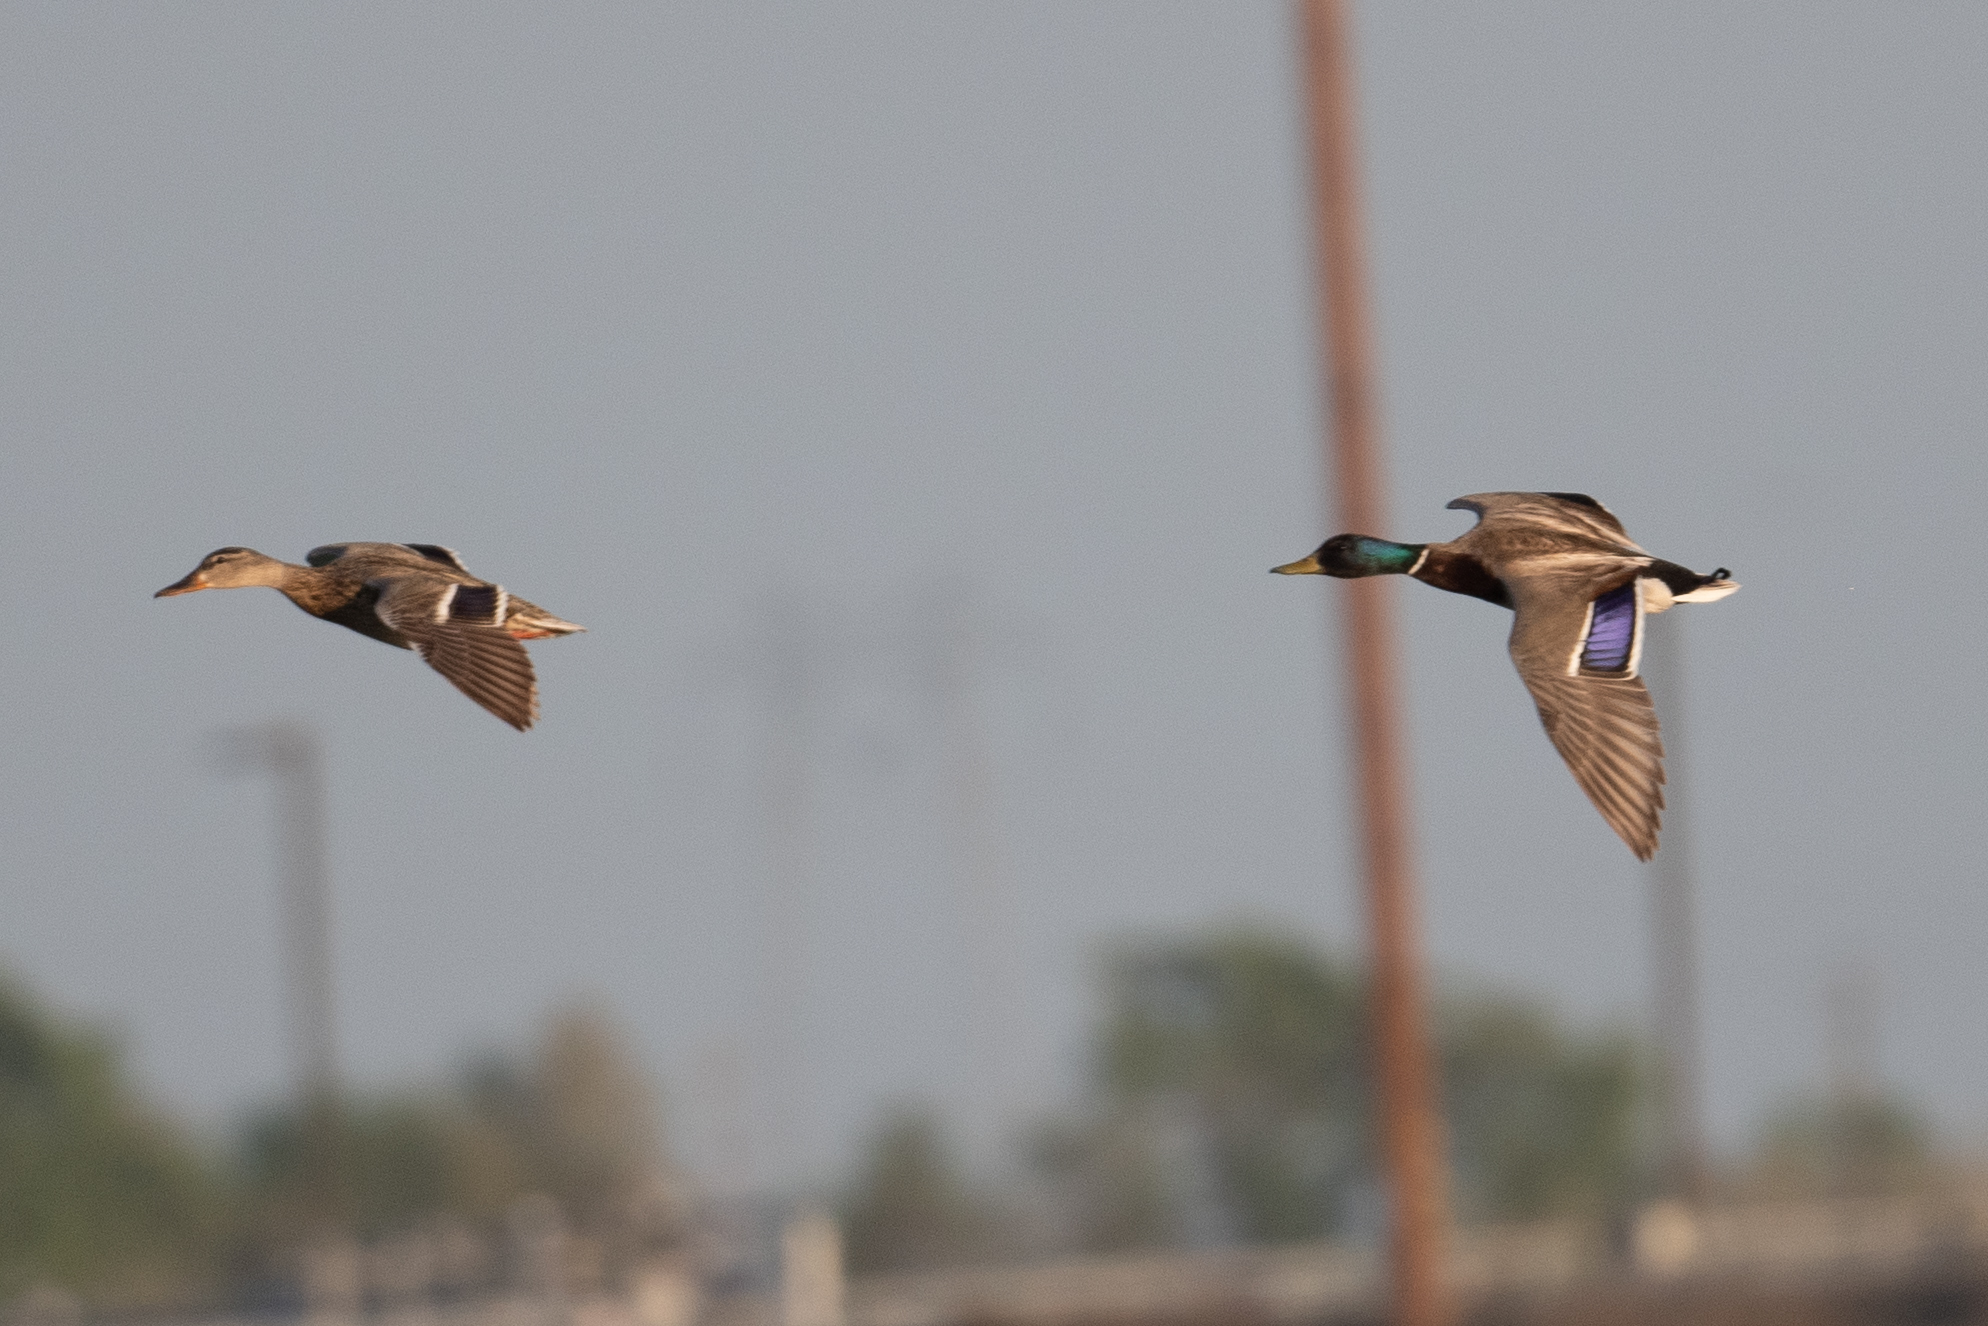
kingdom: Animalia
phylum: Chordata
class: Aves
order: Anseriformes
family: Anatidae
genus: Anas
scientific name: Anas platyrhynchos
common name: Mallard
